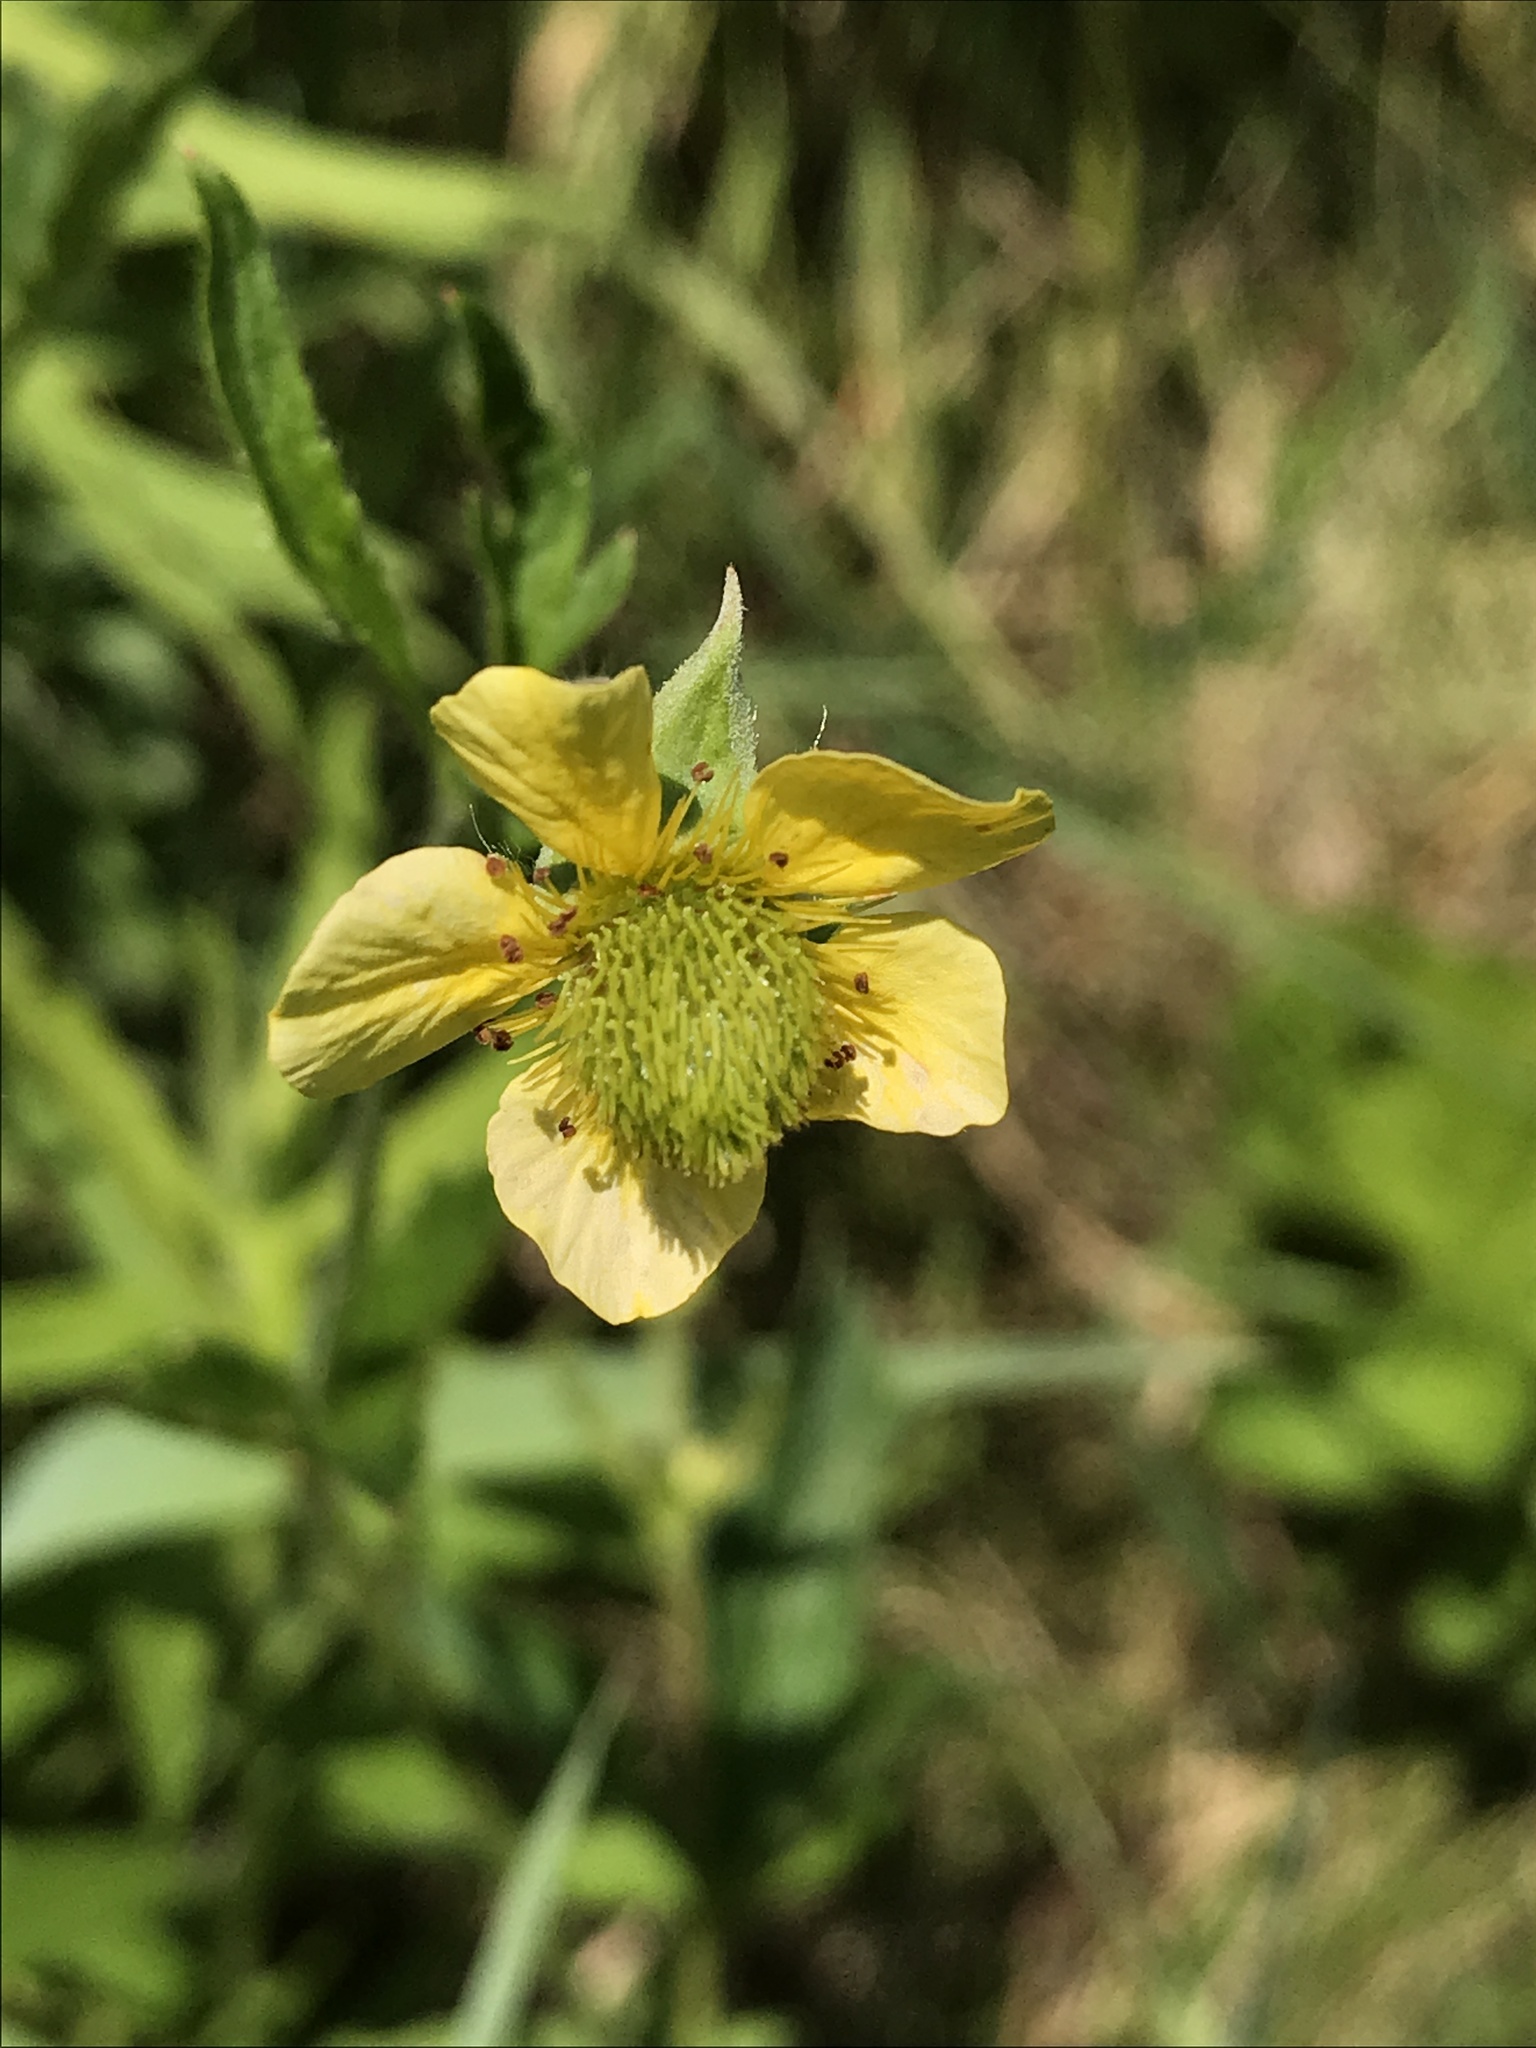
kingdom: Plantae
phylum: Tracheophyta
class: Magnoliopsida
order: Rosales
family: Rosaceae
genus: Geum
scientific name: Geum aleppicum
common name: Yellow avens
